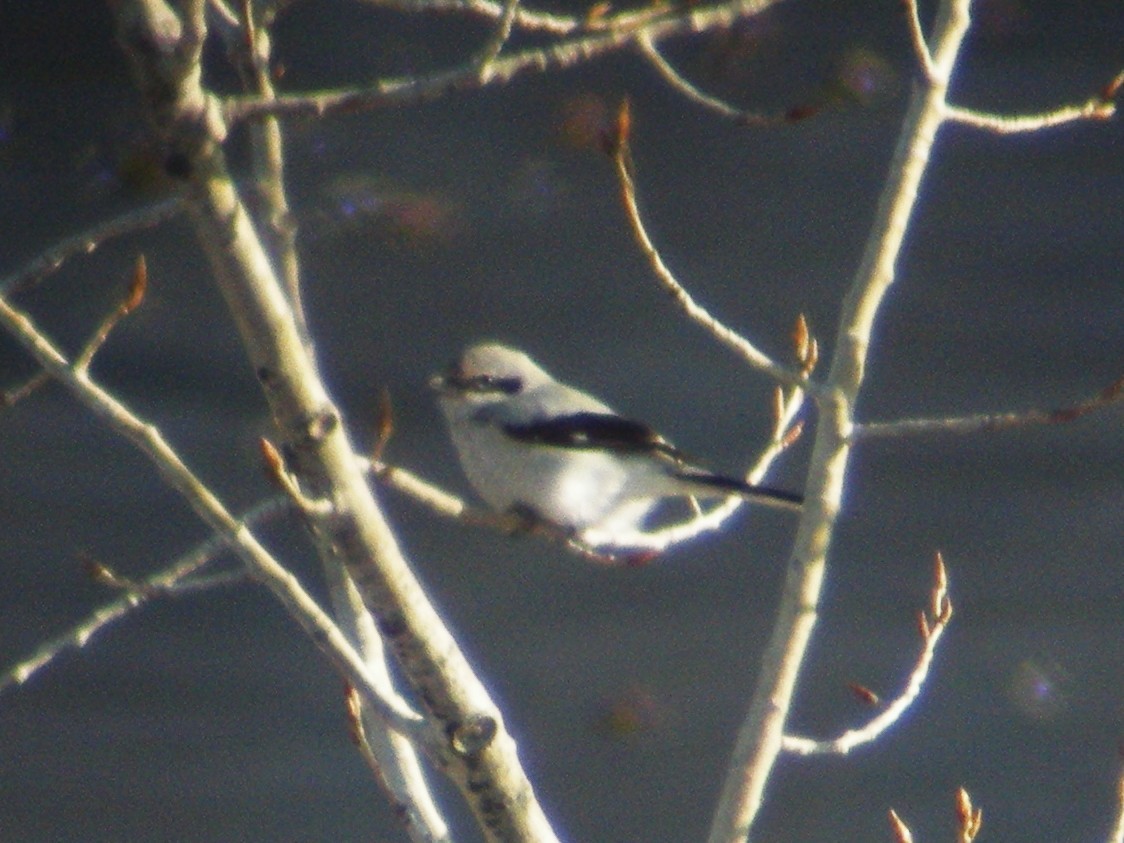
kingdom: Animalia
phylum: Chordata
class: Aves
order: Passeriformes
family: Laniidae
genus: Lanius
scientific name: Lanius borealis
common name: Northern shrike
